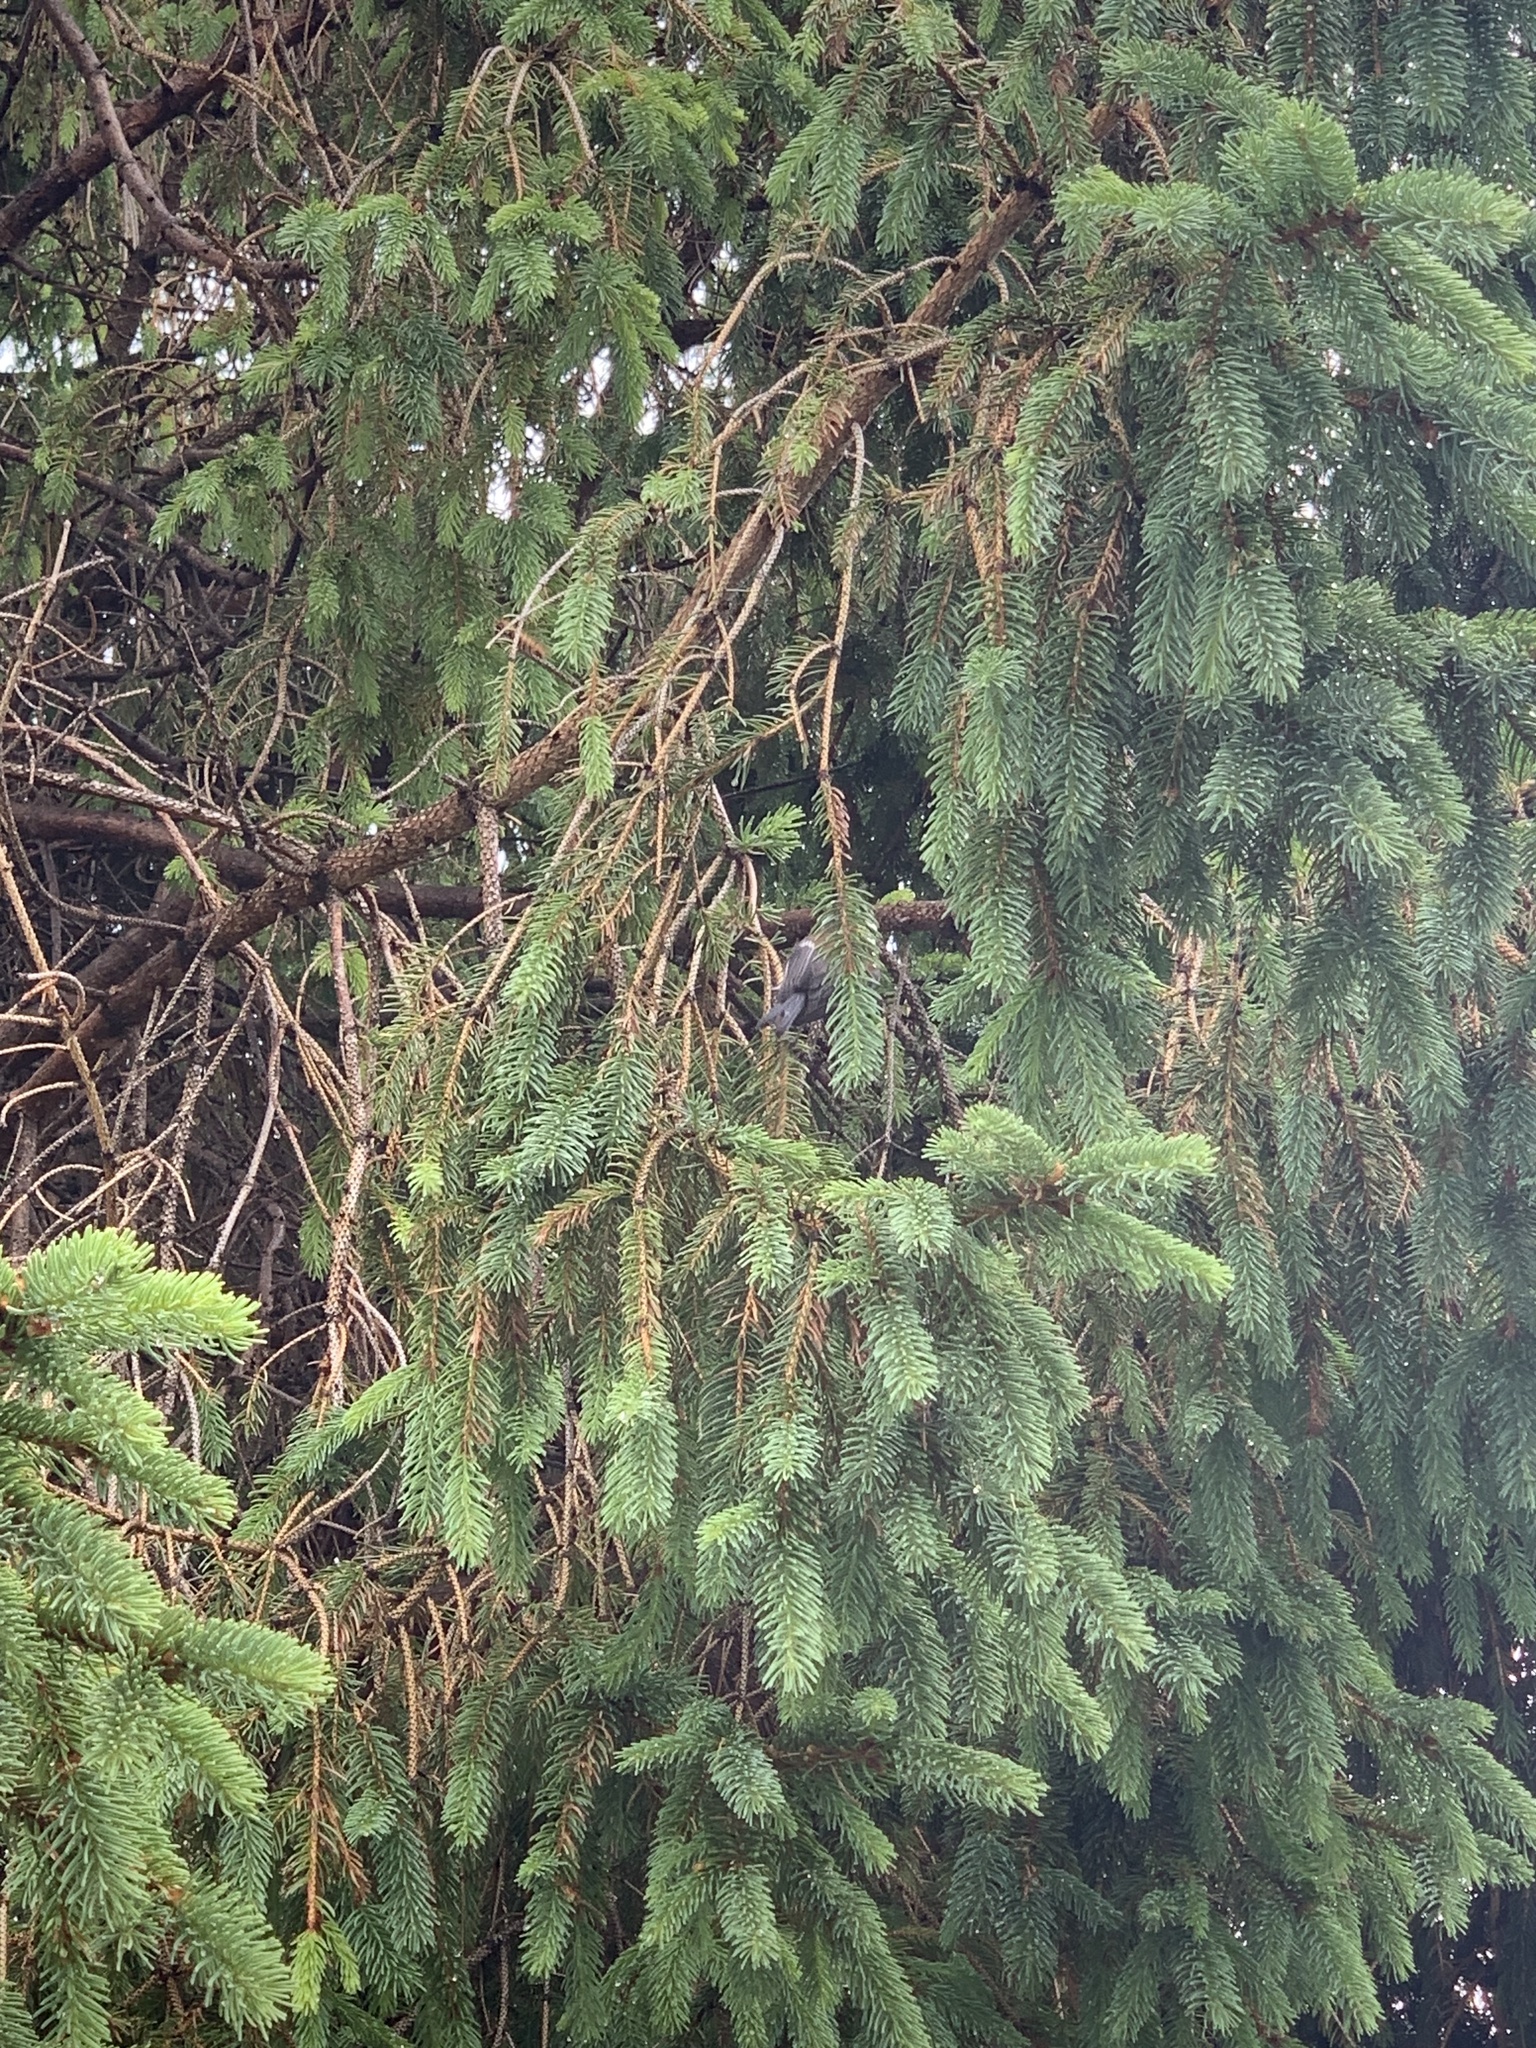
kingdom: Animalia
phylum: Chordata
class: Aves
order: Passeriformes
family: Paridae
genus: Poecile
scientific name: Poecile rufescens
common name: Chestnut-backed chickadee
